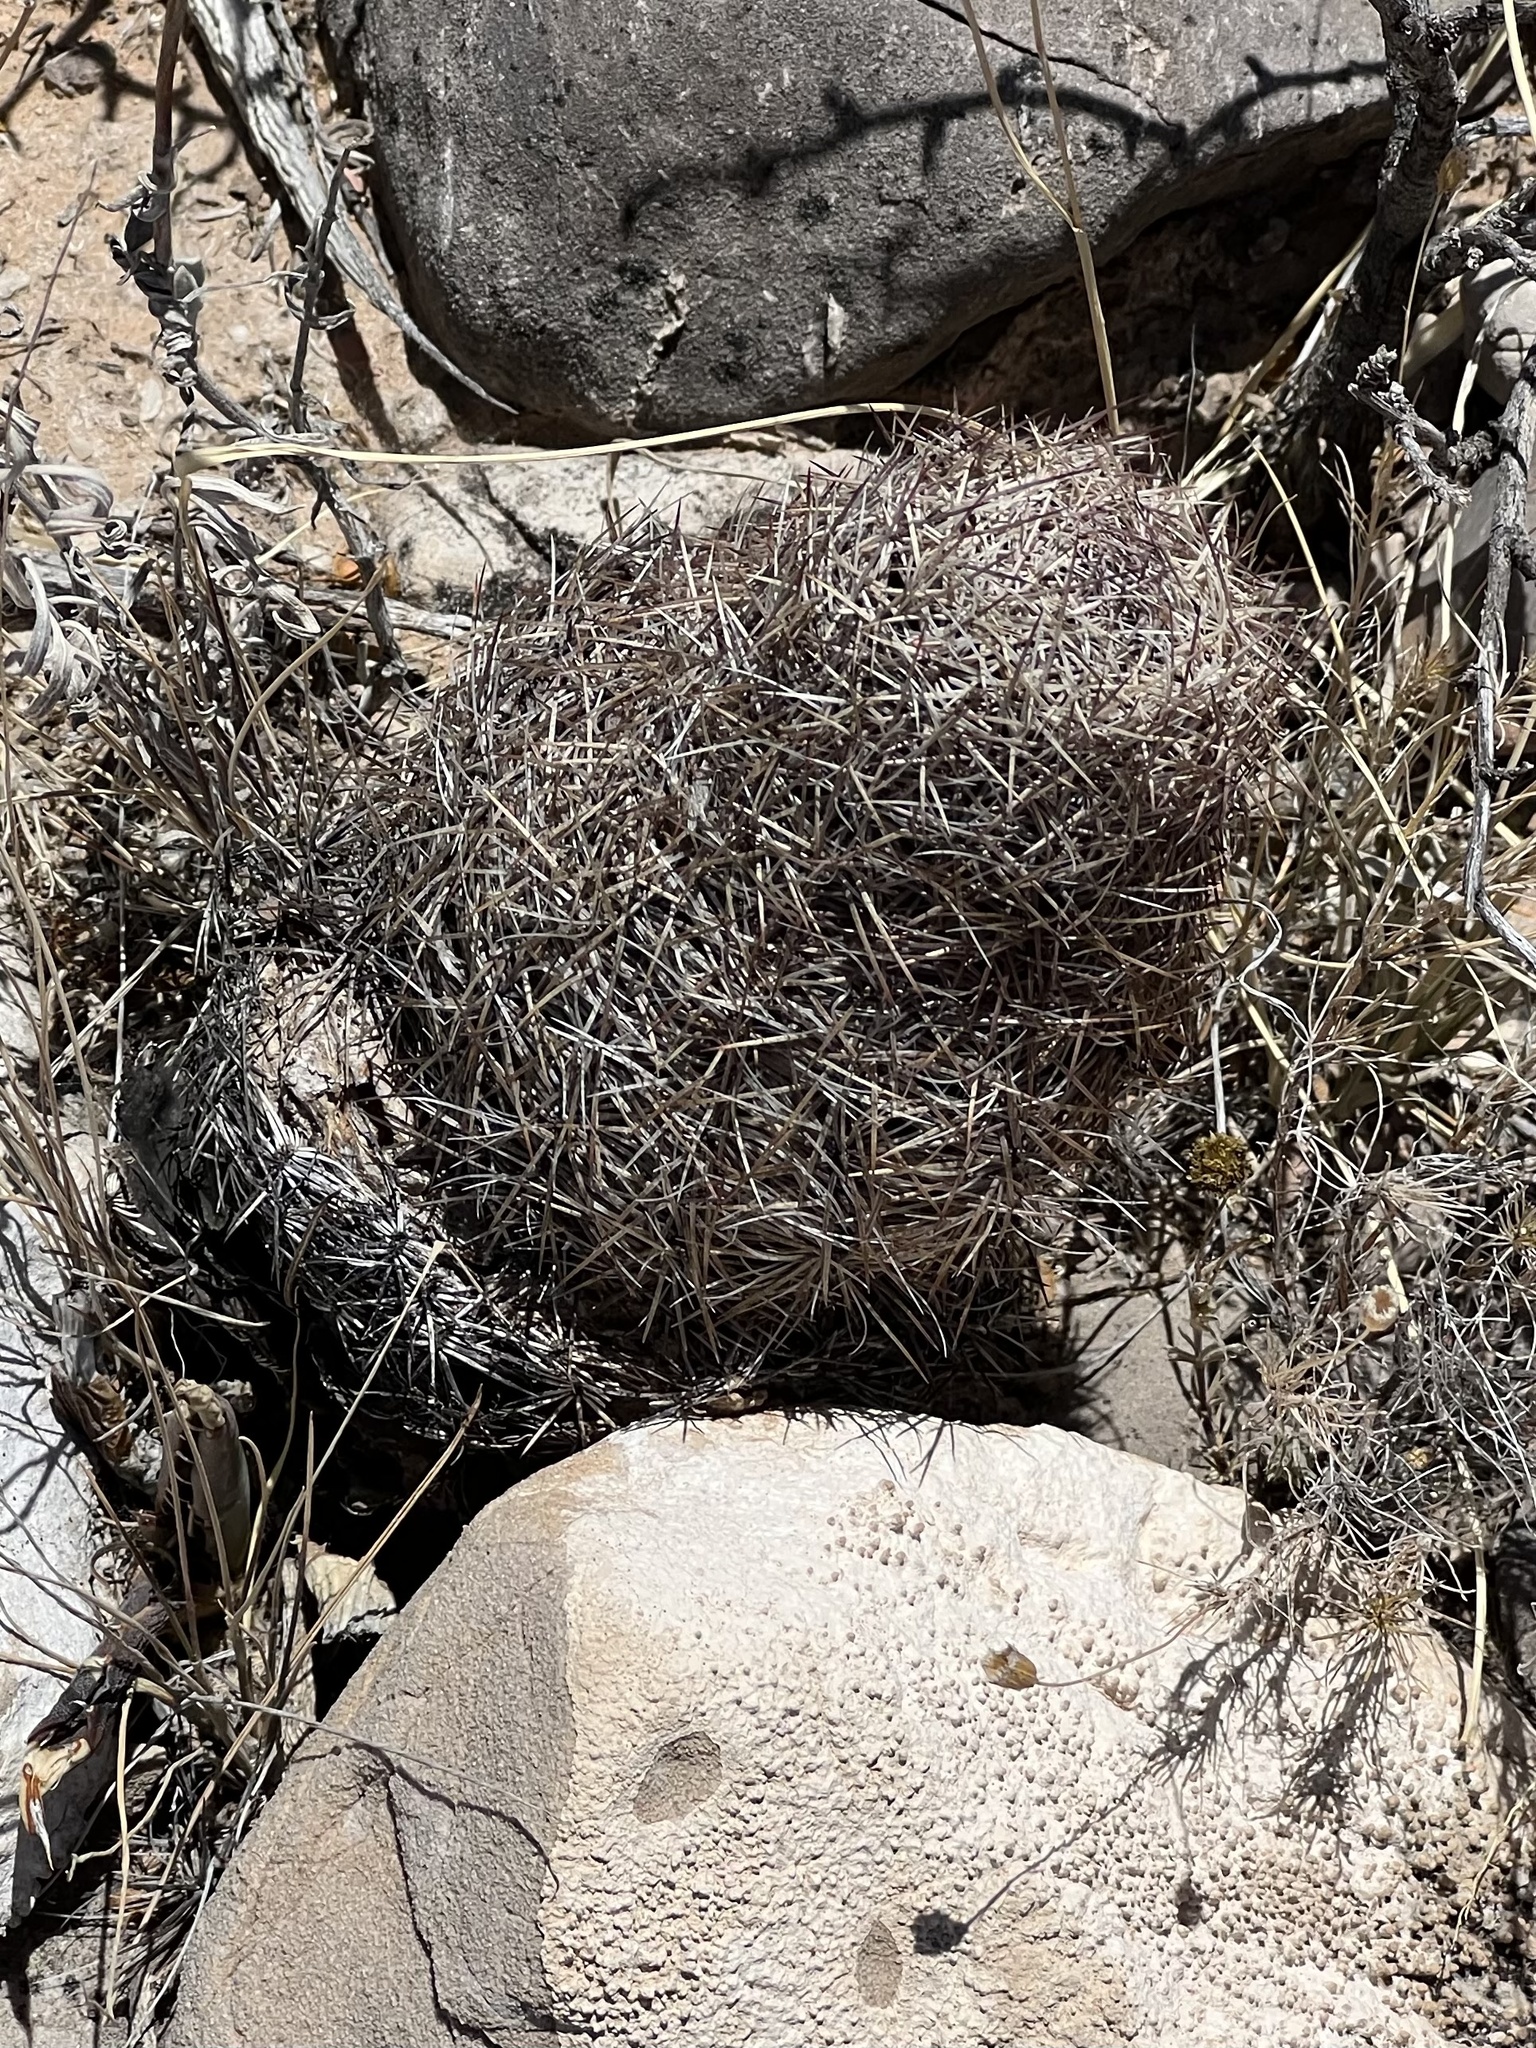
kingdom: Plantae
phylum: Tracheophyta
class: Magnoliopsida
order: Caryophyllales
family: Cactaceae
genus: Sclerocactus
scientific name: Sclerocactus intertextus
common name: White fish-hook cactus
